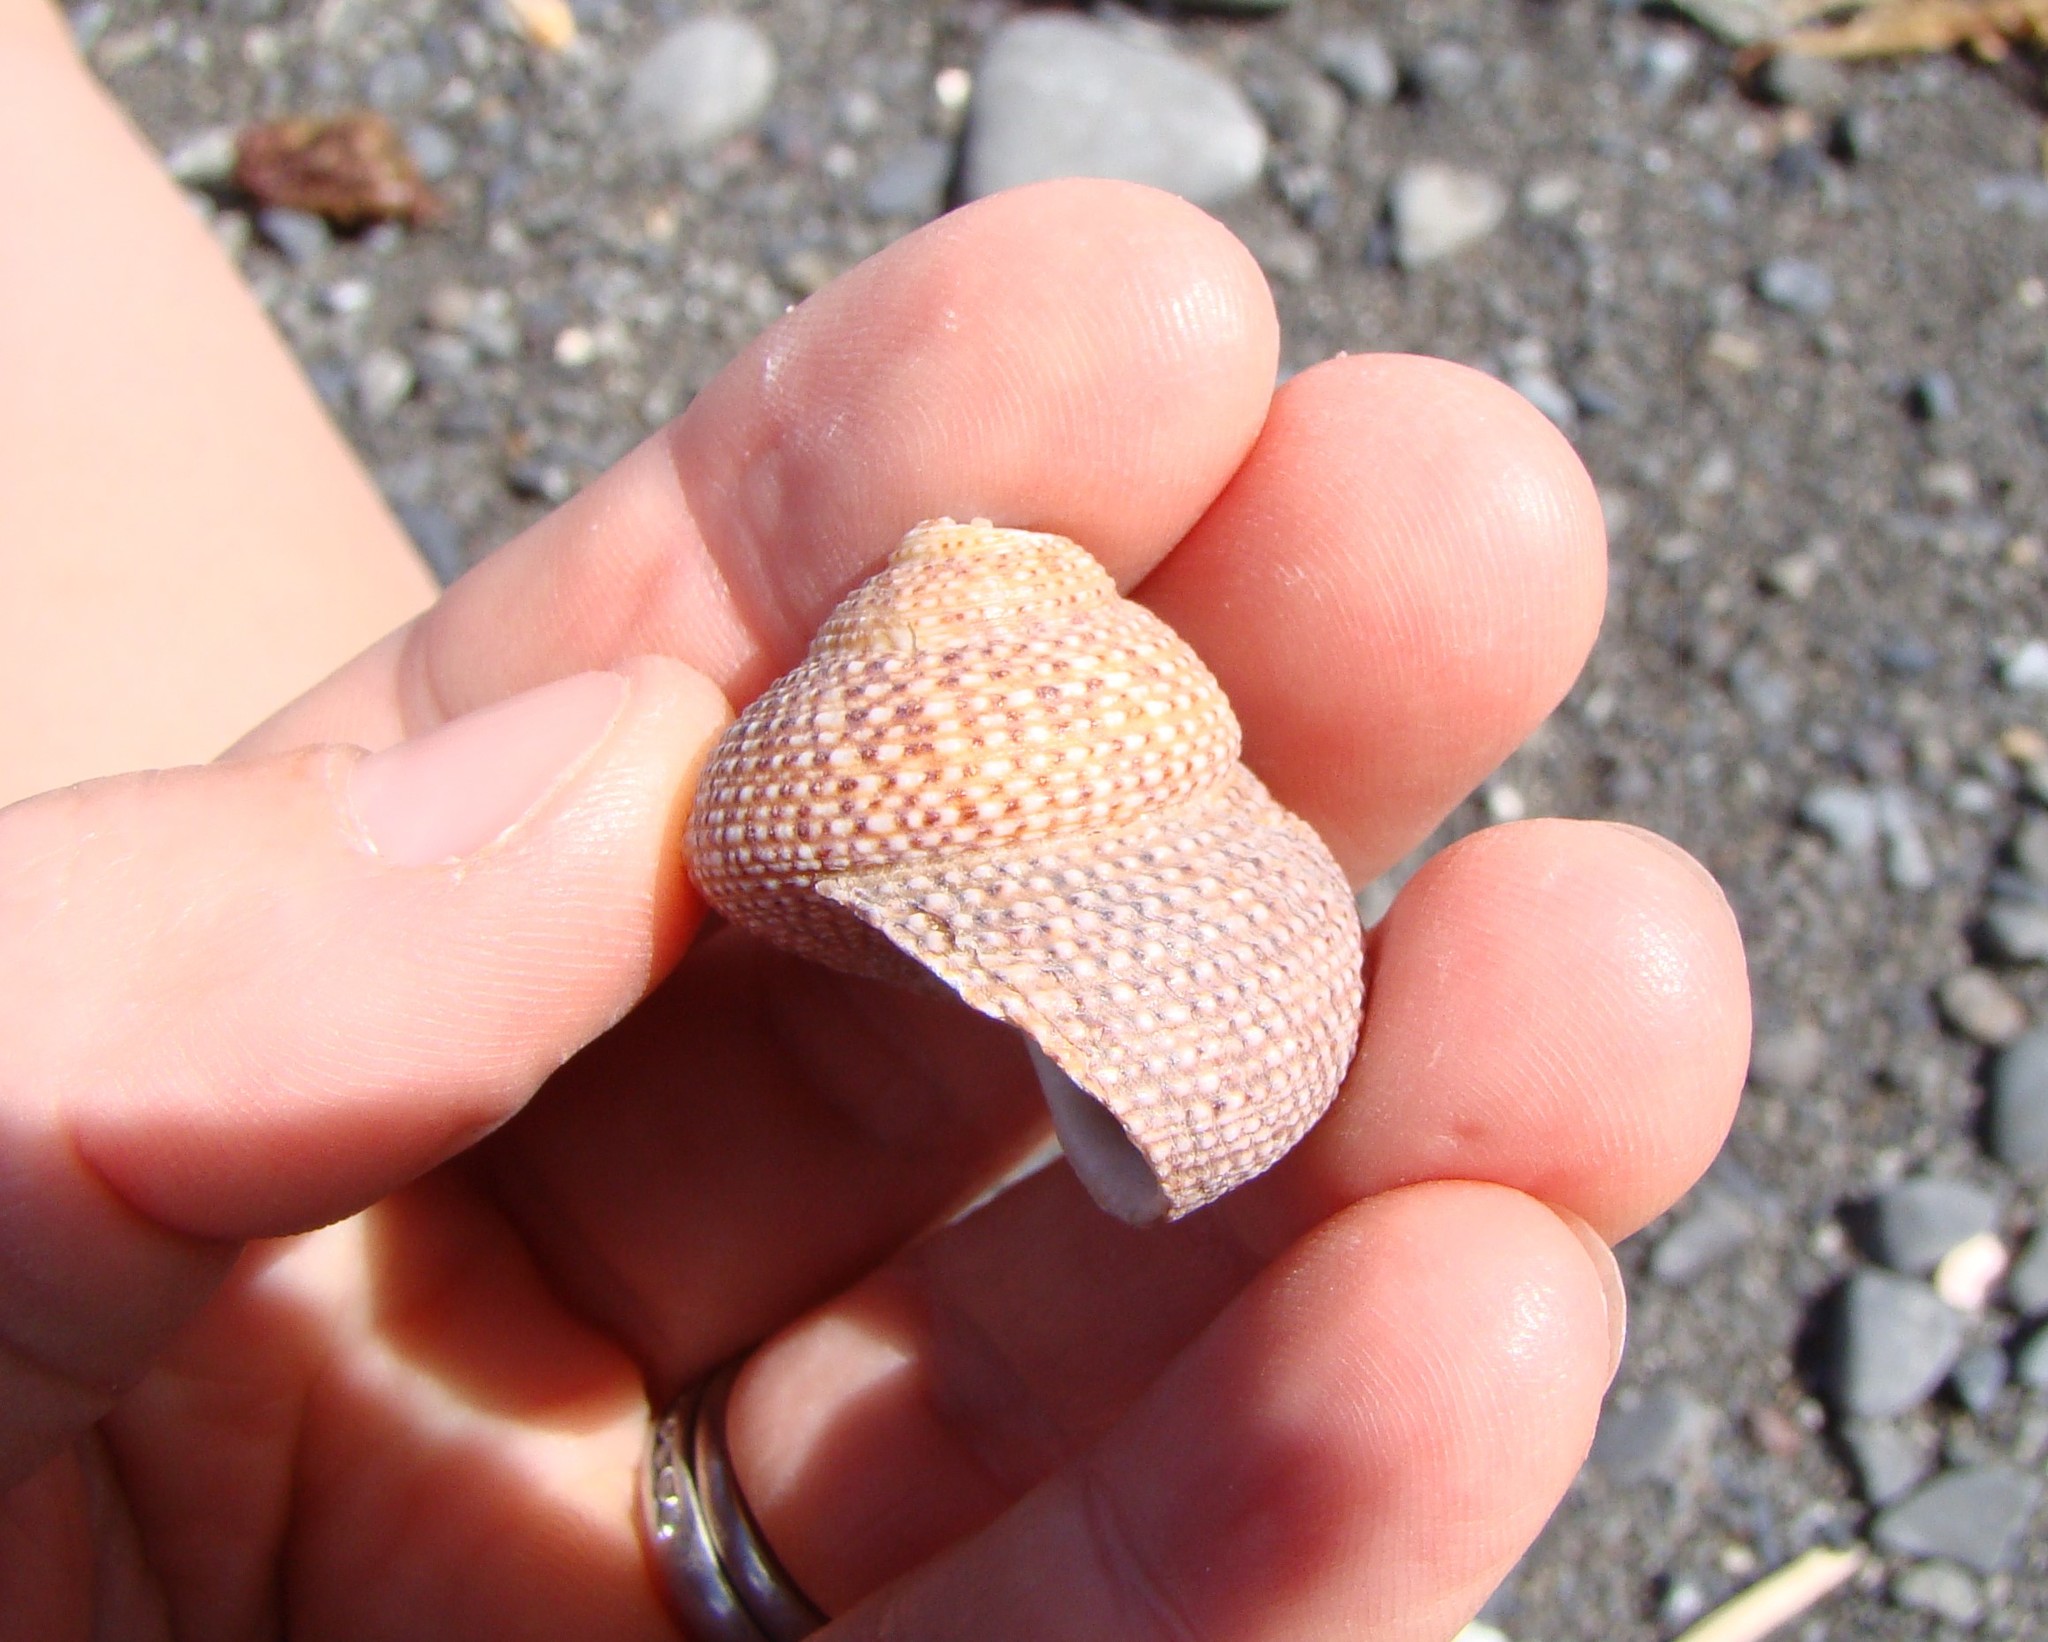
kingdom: Animalia
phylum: Mollusca
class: Gastropoda
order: Trochida
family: Calliostomatidae
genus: Maurea
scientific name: Maurea punctulata
